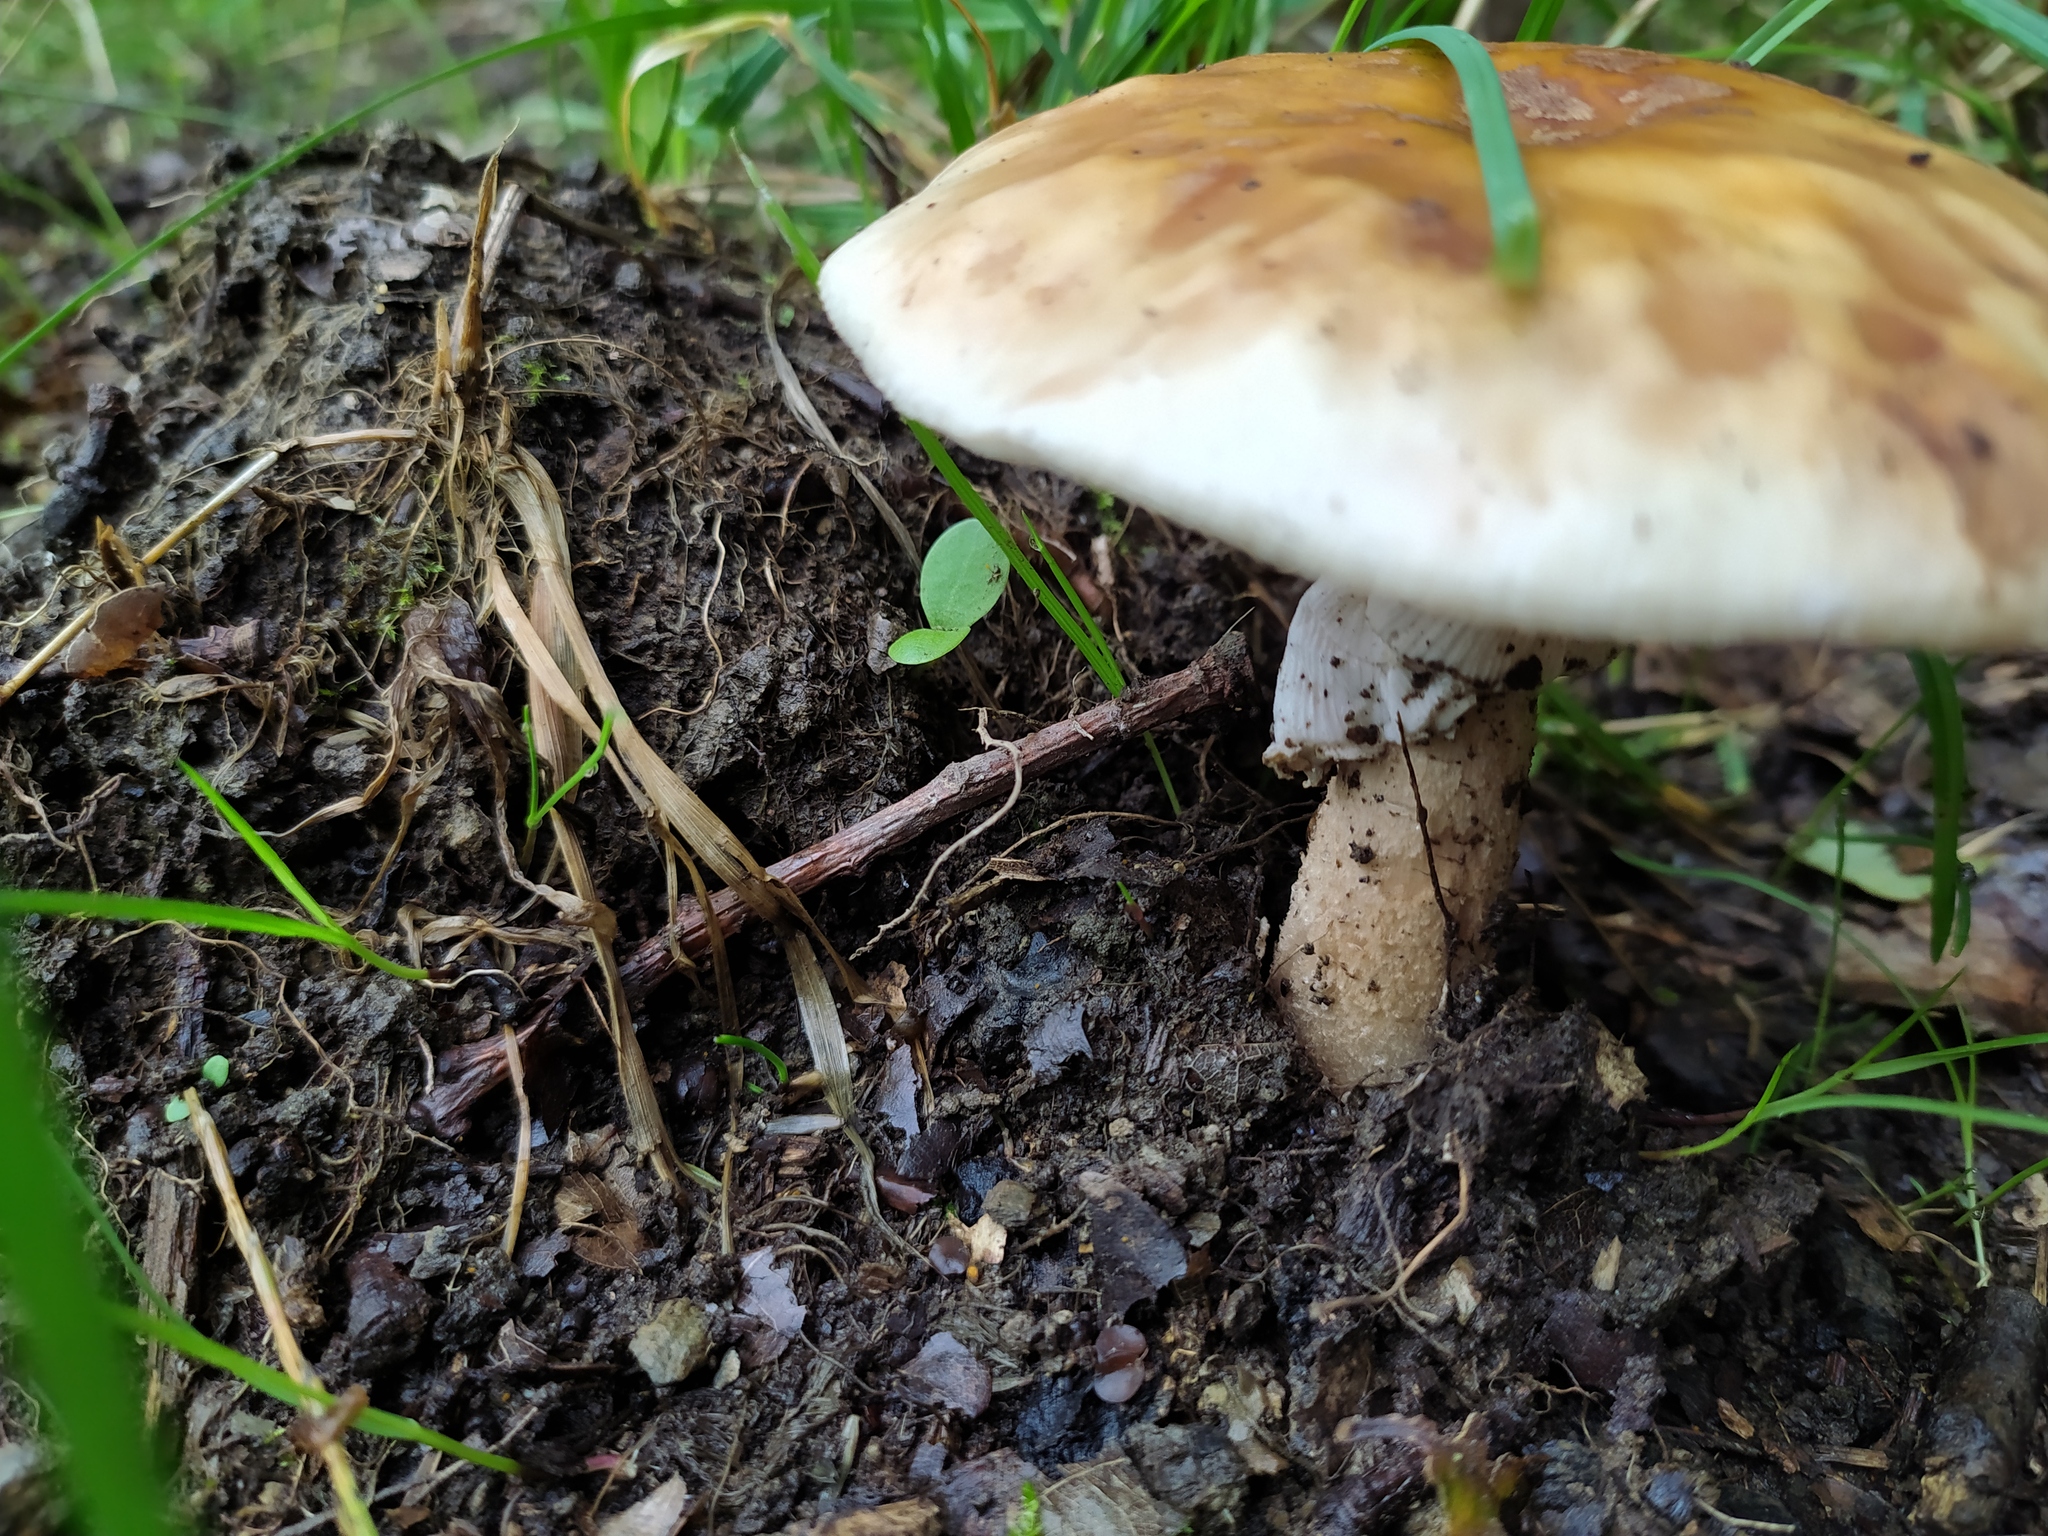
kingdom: Fungi
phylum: Basidiomycota
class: Agaricomycetes
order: Agaricales
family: Amanitaceae
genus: Amanita
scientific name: Amanita rubescens
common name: Blusher
